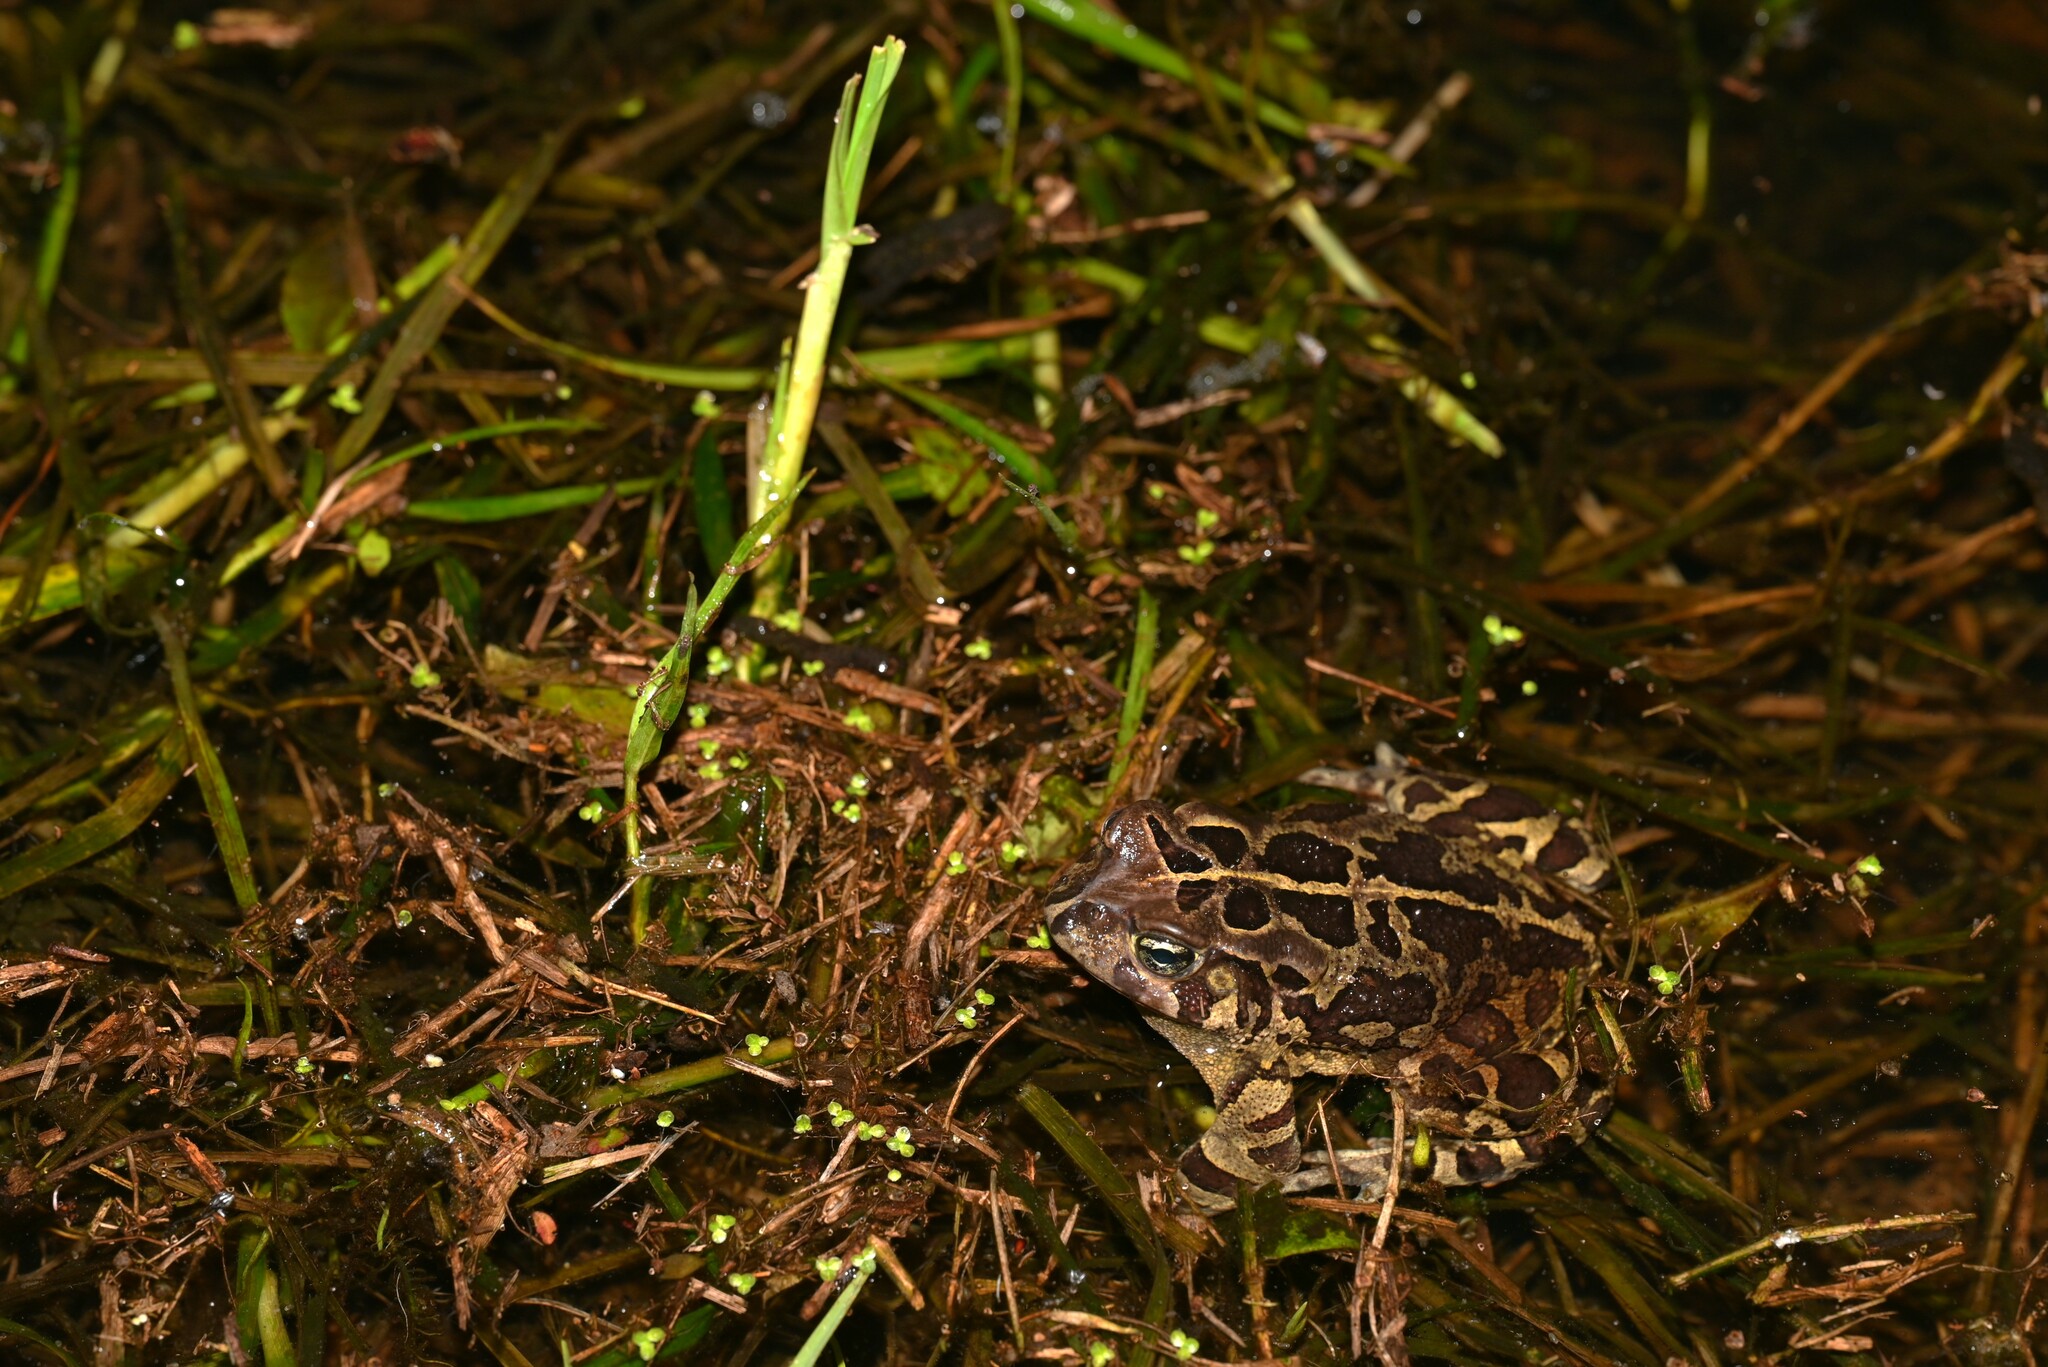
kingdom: Animalia
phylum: Chordata
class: Amphibia
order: Anura
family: Bufonidae
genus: Sclerophrys
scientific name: Sclerophrys pantherina
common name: Panther toad
